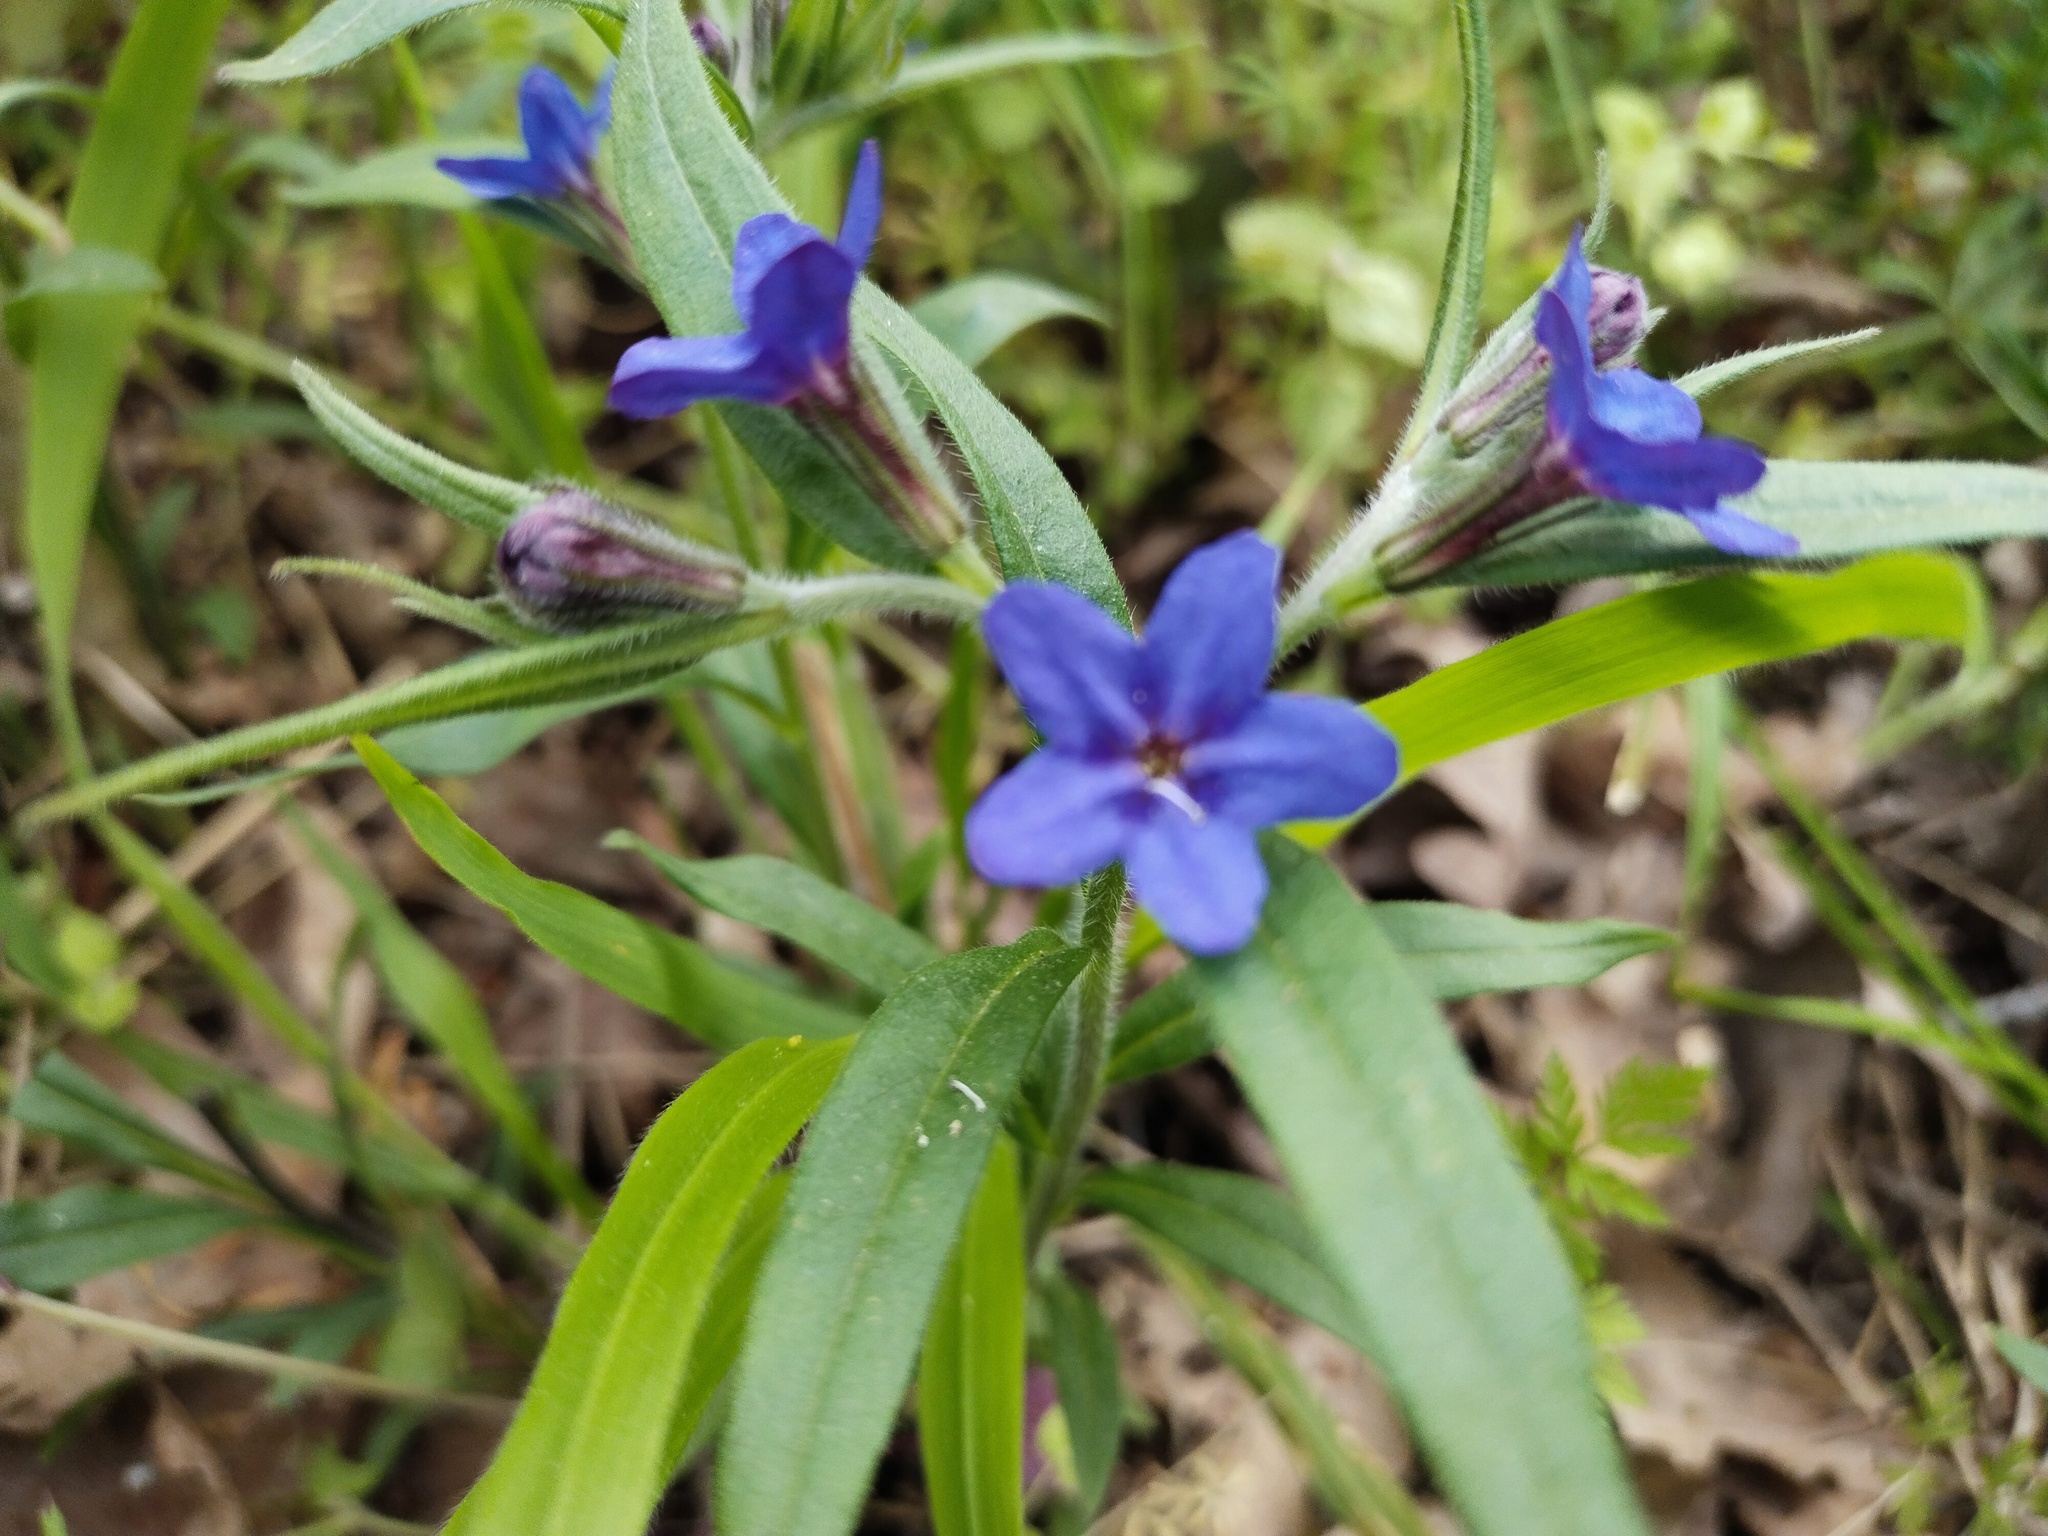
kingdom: Plantae
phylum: Tracheophyta
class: Magnoliopsida
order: Boraginales
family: Boraginaceae
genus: Aegonychon
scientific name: Aegonychon purpurocaeruleum
